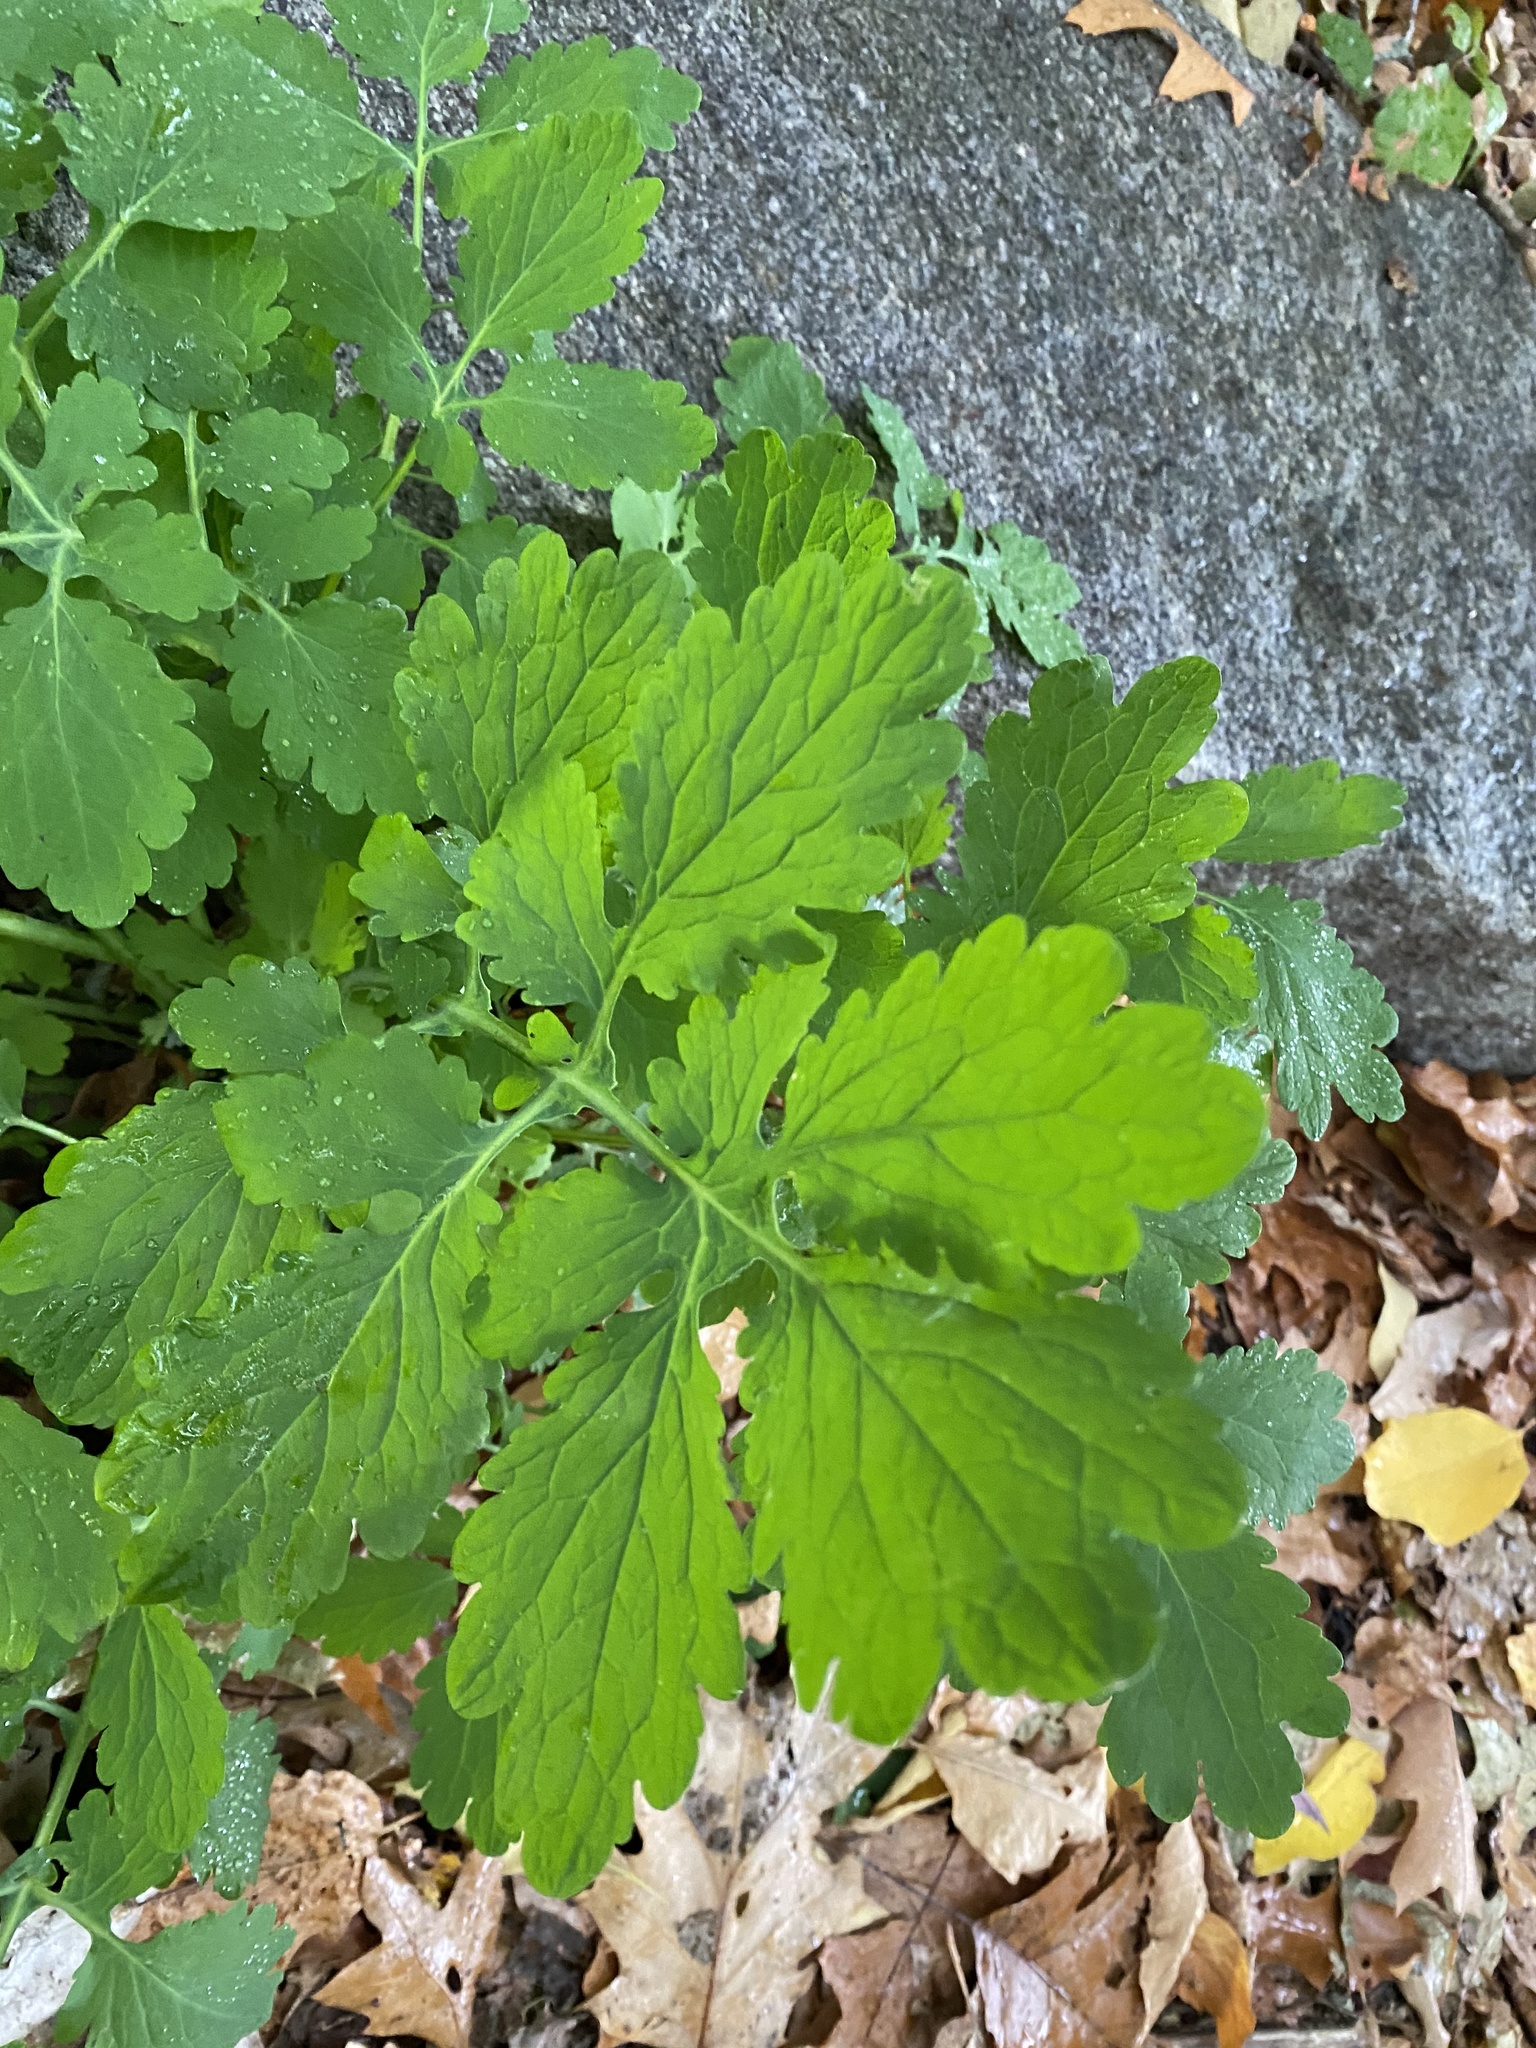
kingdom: Plantae
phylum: Tracheophyta
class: Magnoliopsida
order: Ranunculales
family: Papaveraceae
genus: Chelidonium
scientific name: Chelidonium majus
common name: Greater celandine
